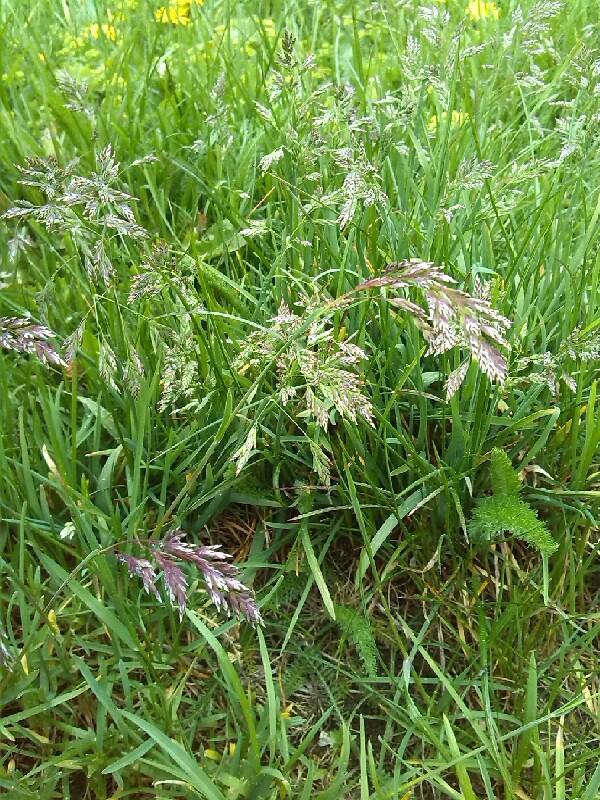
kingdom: Plantae
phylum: Tracheophyta
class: Liliopsida
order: Poales
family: Poaceae
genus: Poa
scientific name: Poa alpina
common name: Alpine bluegrass
